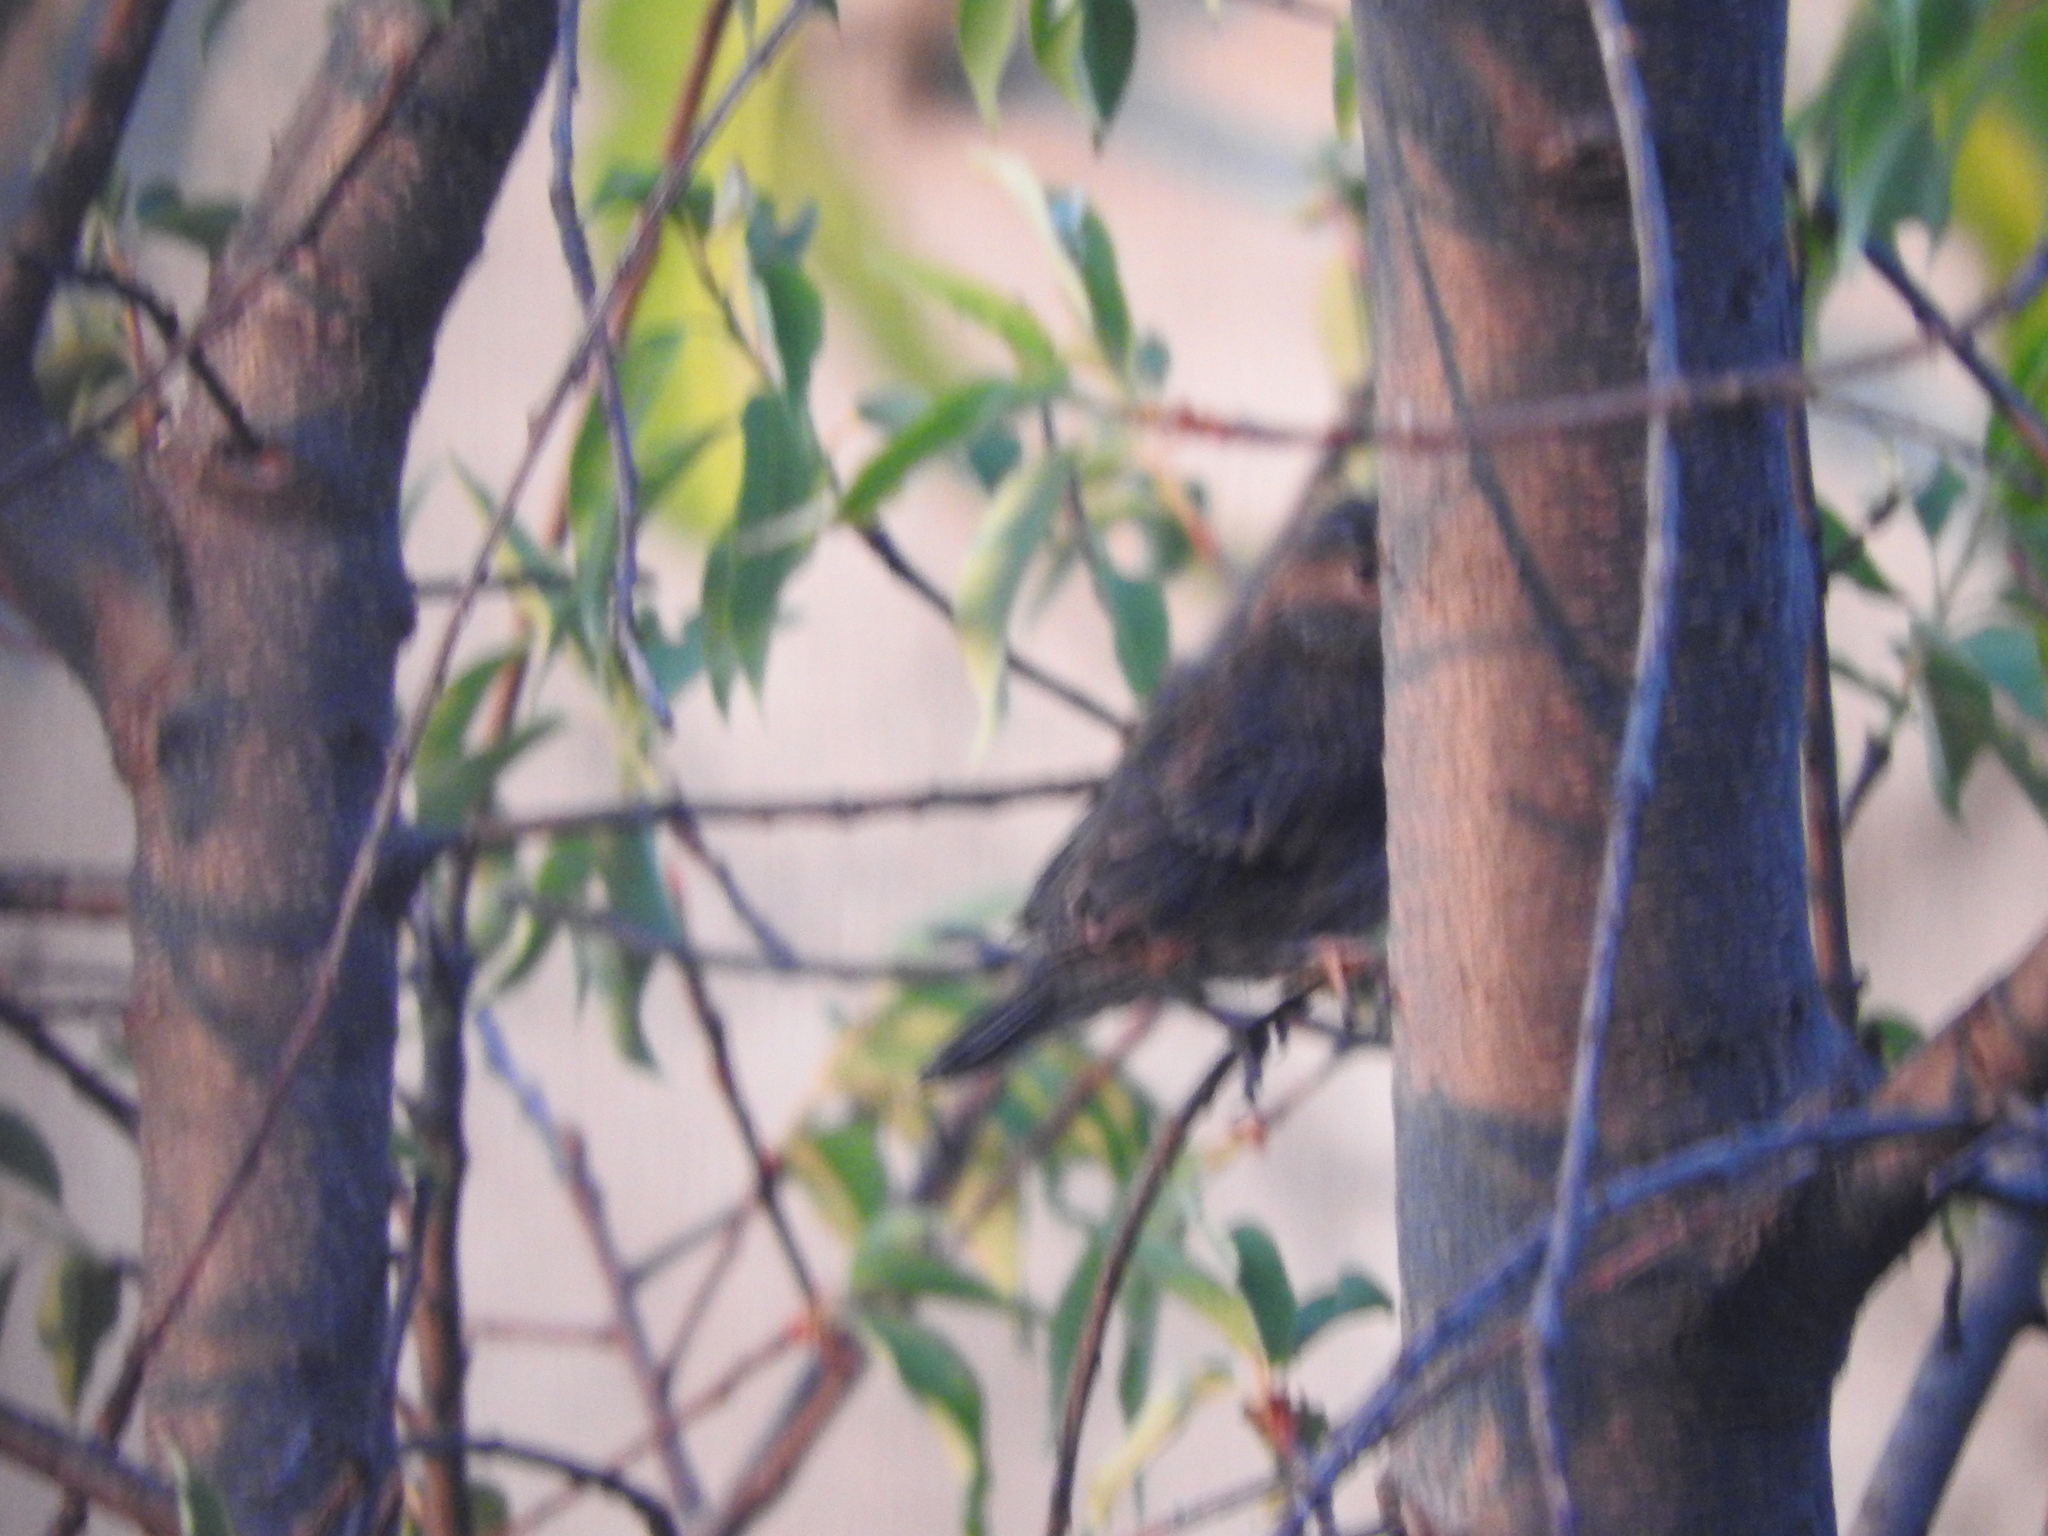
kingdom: Animalia
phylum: Chordata
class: Aves
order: Passeriformes
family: Fringillidae
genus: Haemorhous
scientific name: Haemorhous mexicanus
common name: House finch
